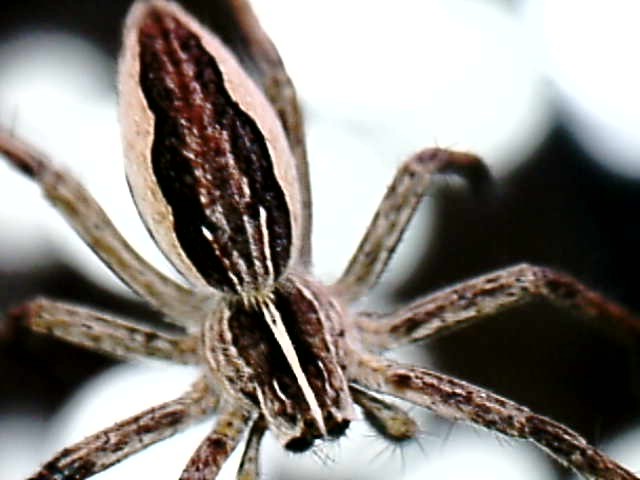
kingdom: Animalia
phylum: Arthropoda
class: Arachnida
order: Araneae
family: Pisauridae
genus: Pisaura
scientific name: Pisaura mirabilis
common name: Tent spider
